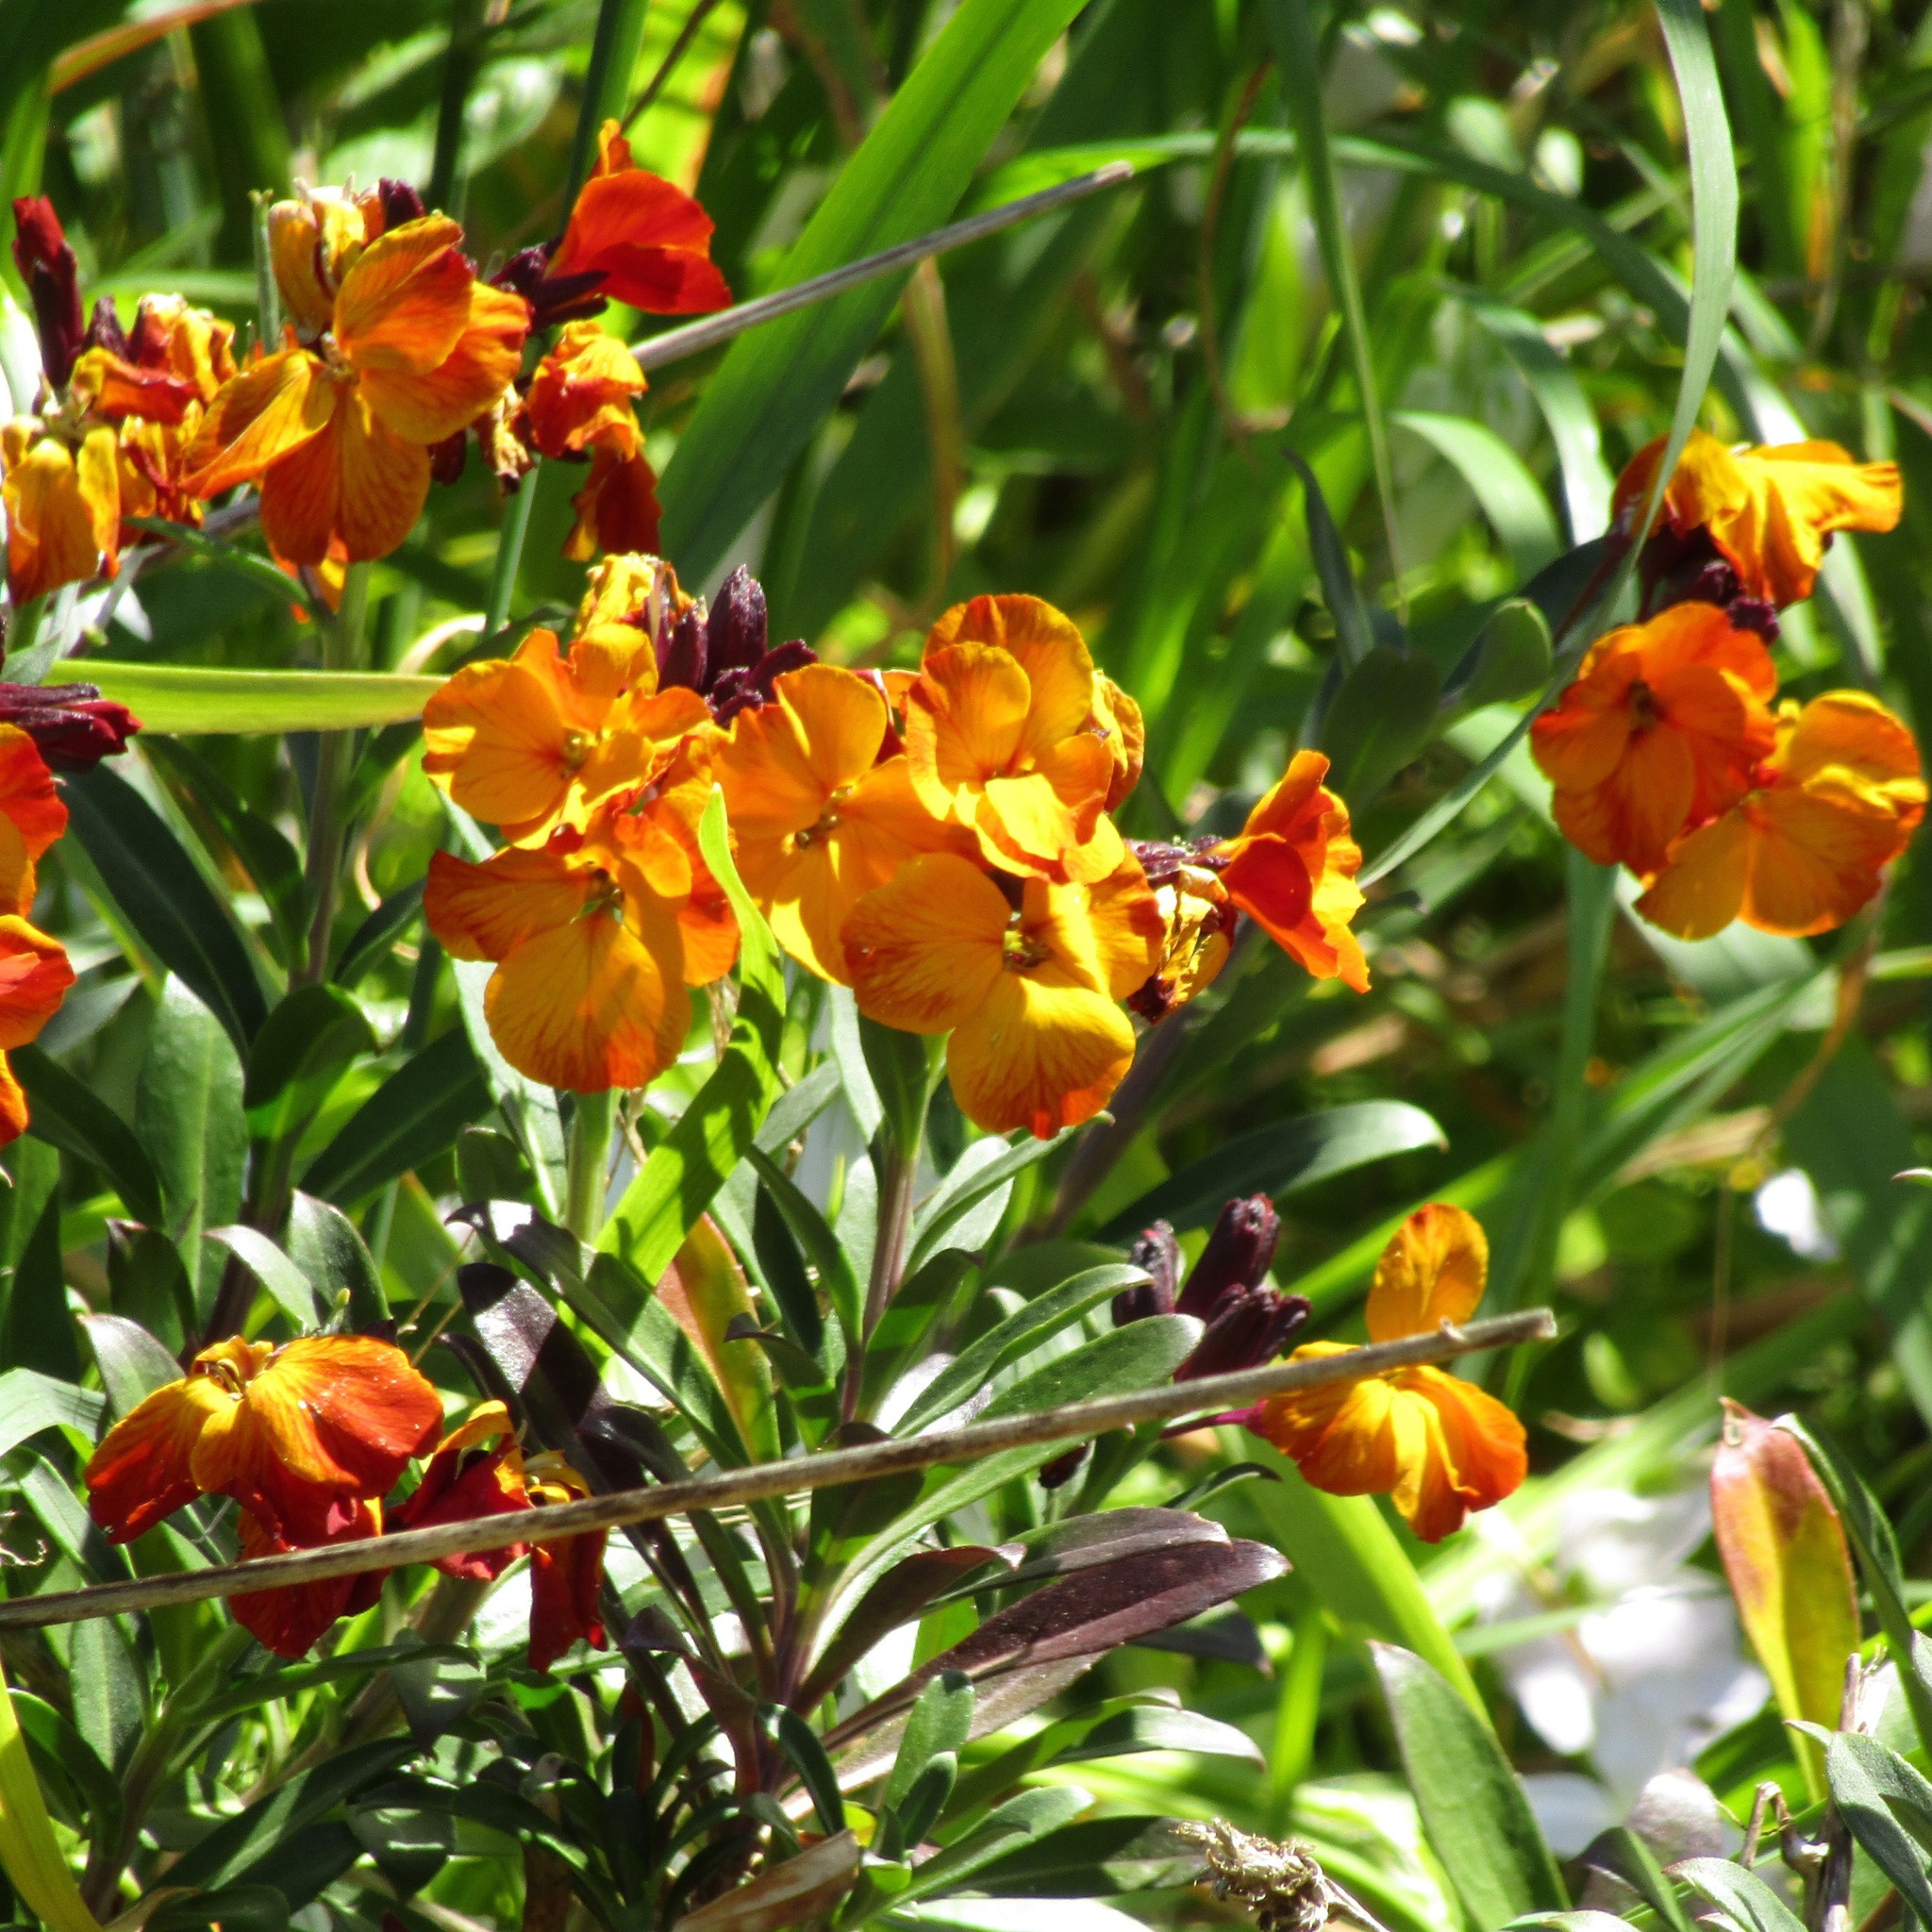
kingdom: Plantae
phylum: Tracheophyta
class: Magnoliopsida
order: Brassicales
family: Brassicaceae
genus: Erysimum
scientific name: Erysimum cheiri
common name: Wallflower
